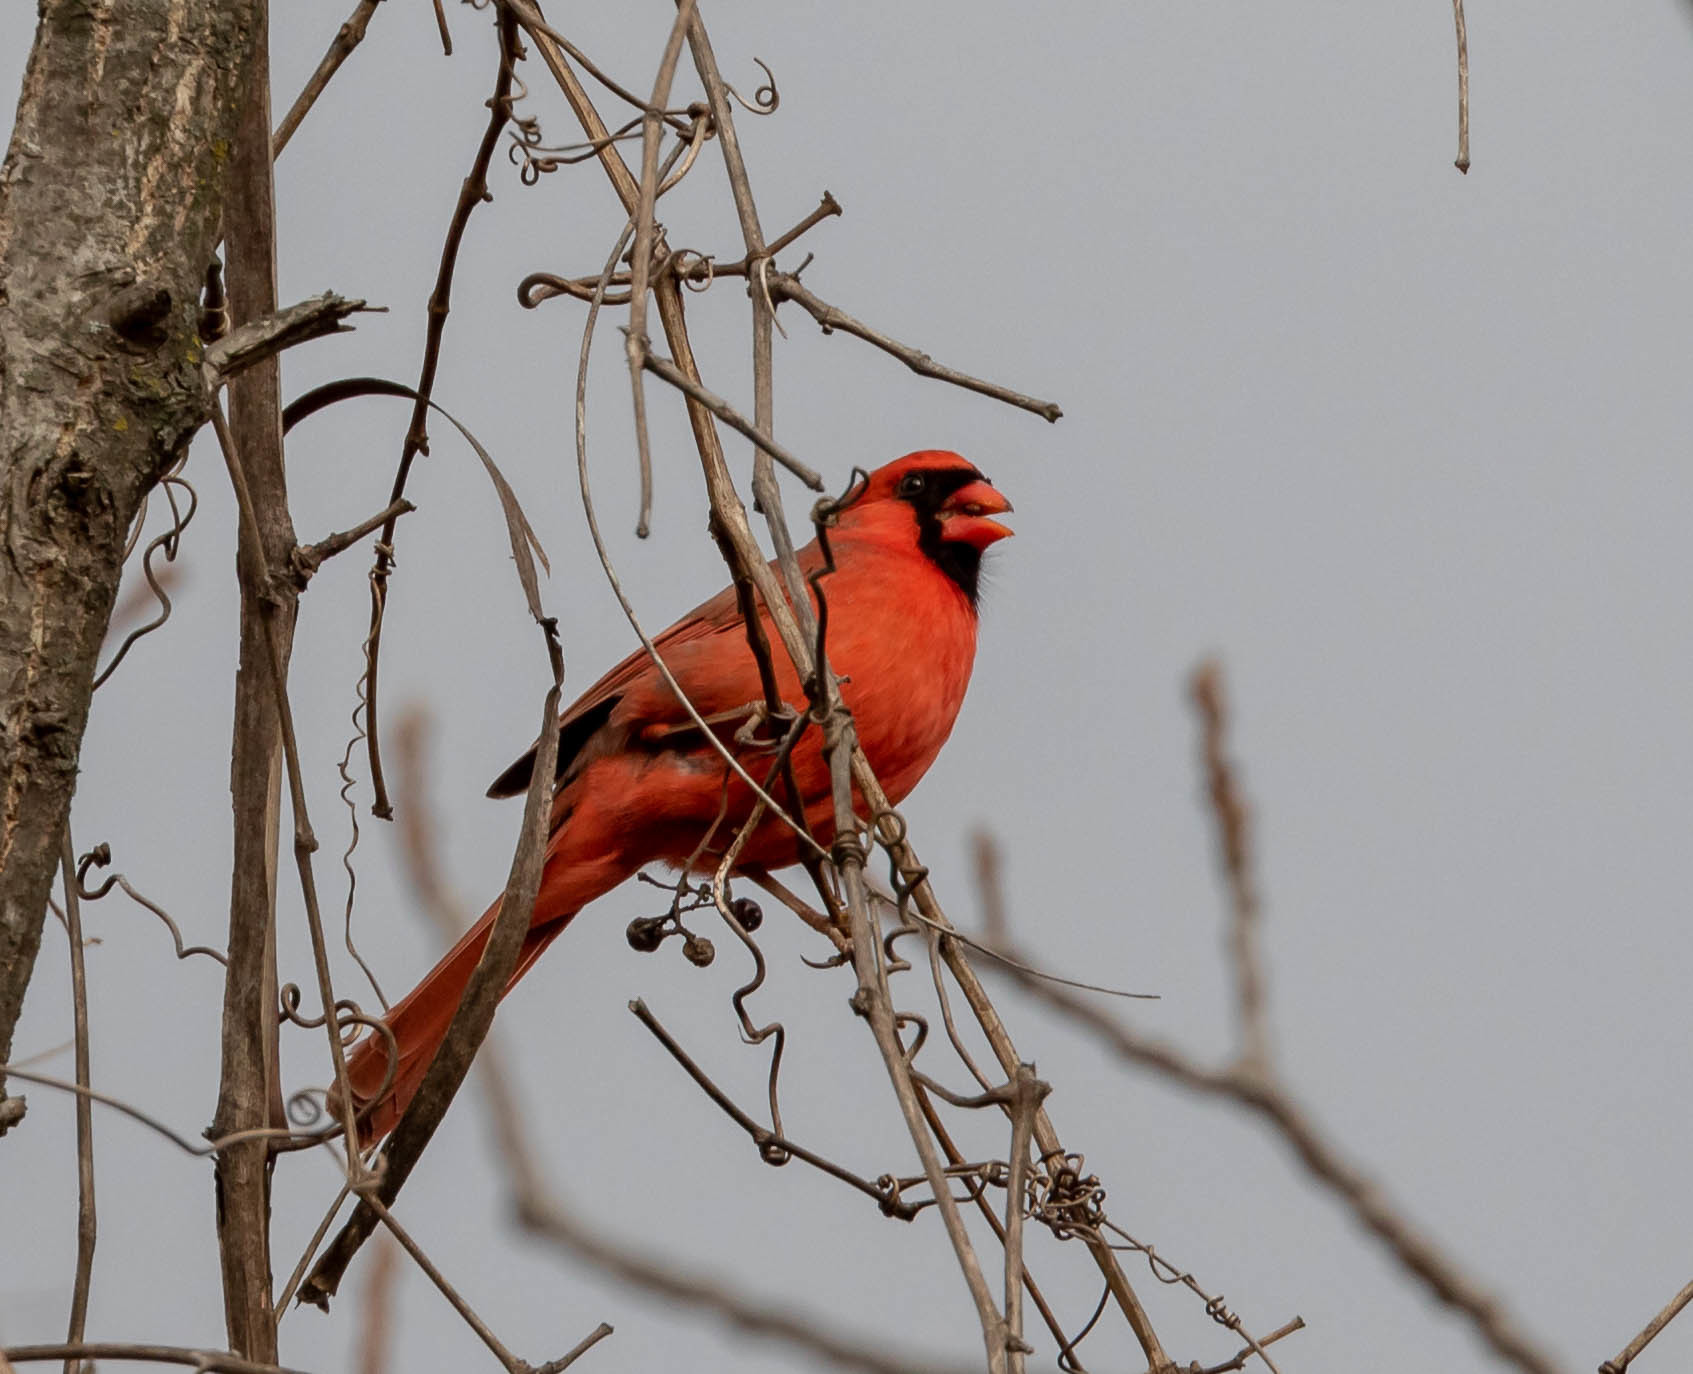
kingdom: Animalia
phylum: Chordata
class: Aves
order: Passeriformes
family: Cardinalidae
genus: Cardinalis
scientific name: Cardinalis cardinalis
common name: Northern cardinal
